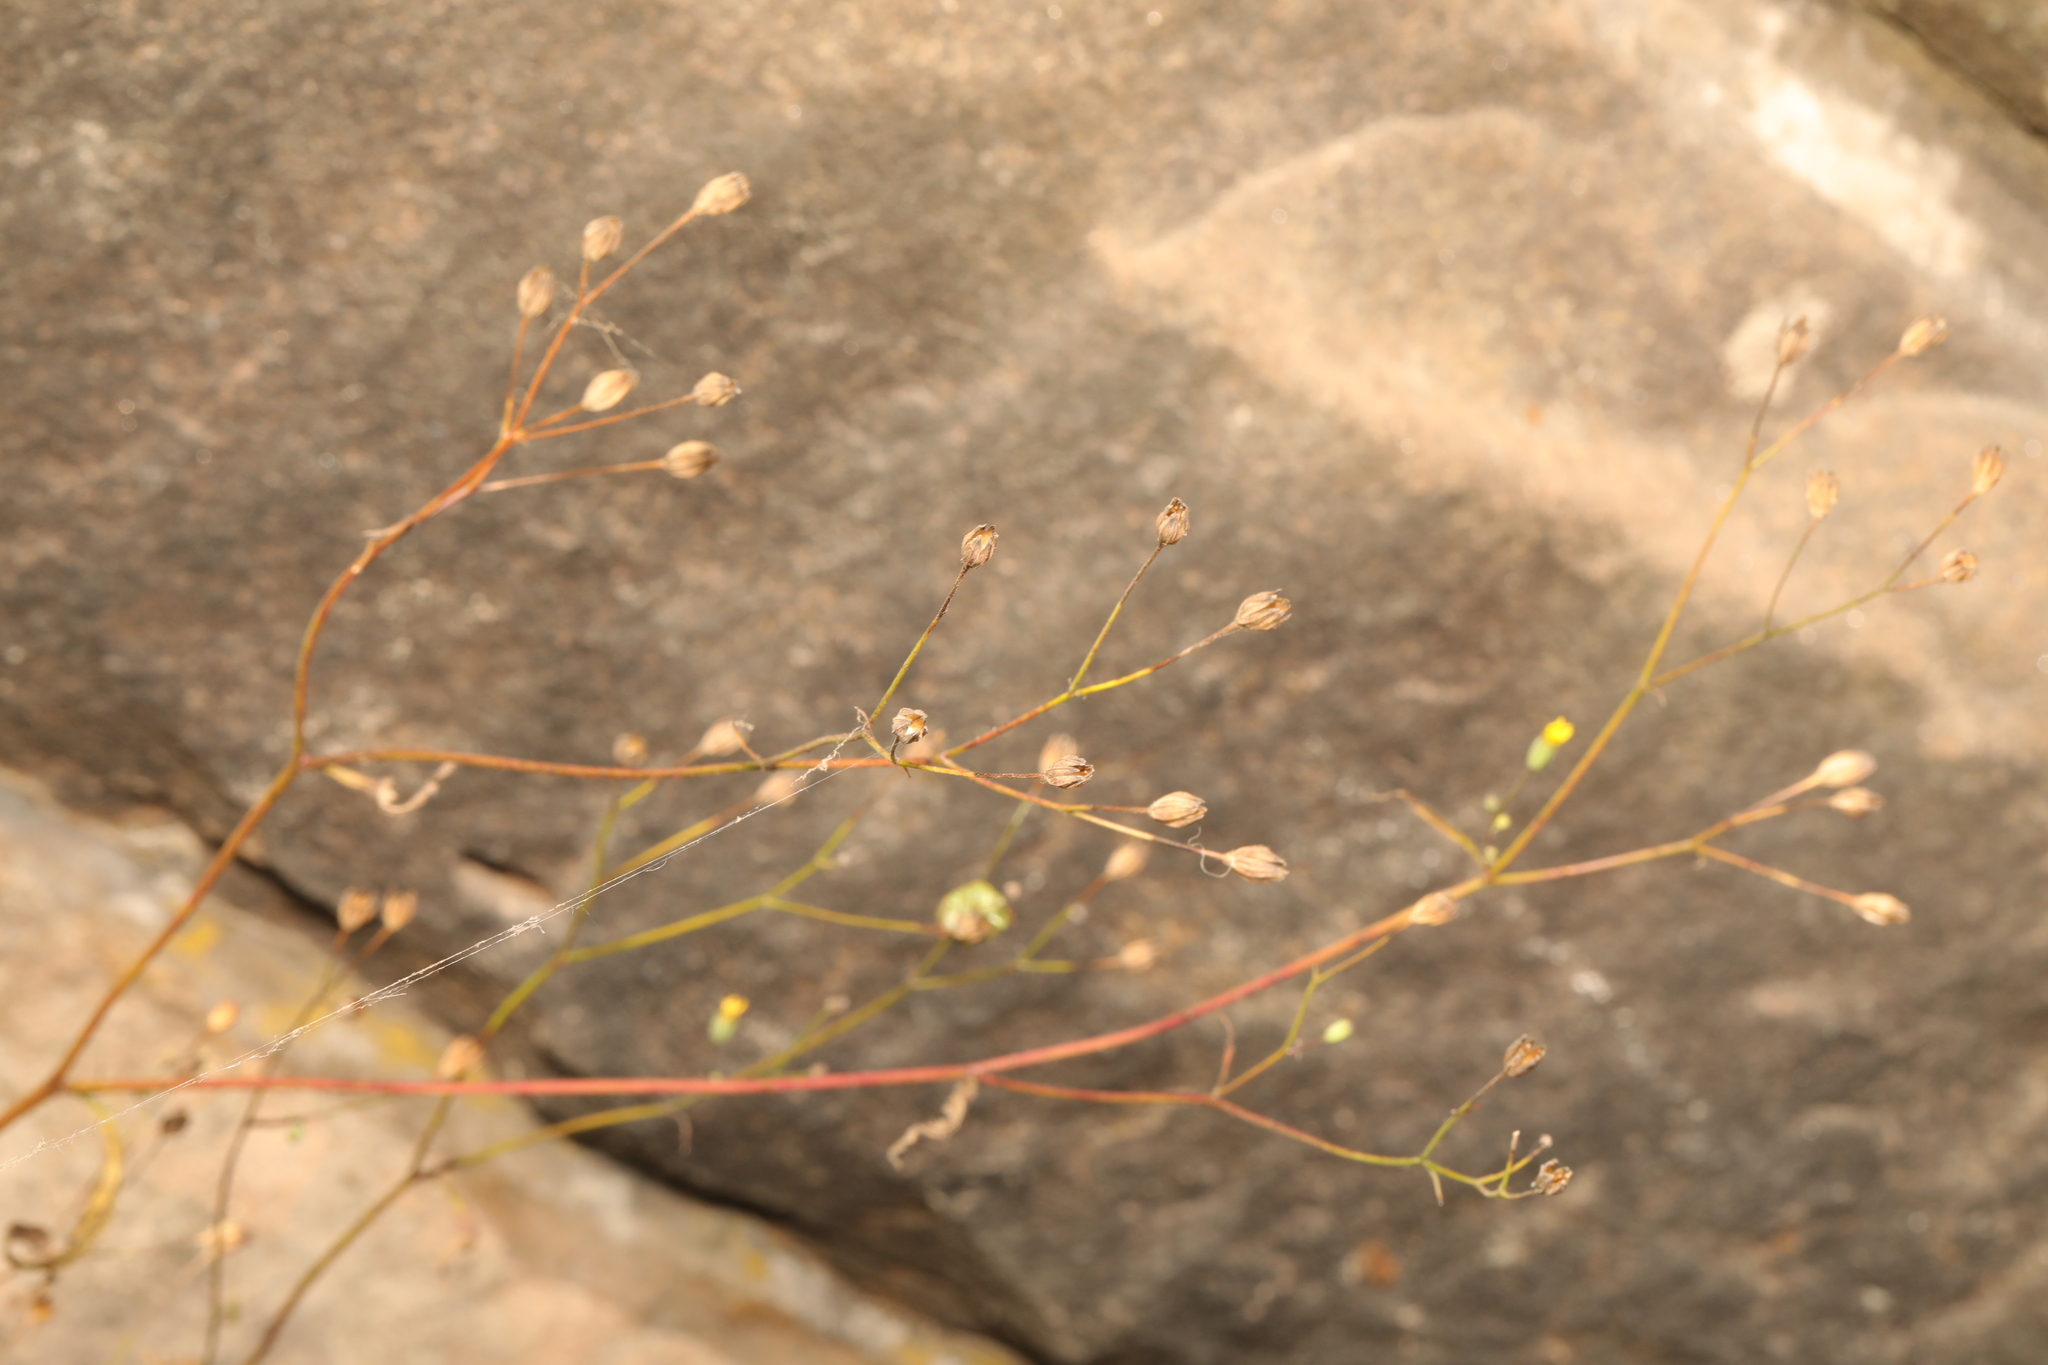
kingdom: Plantae
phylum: Tracheophyta
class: Magnoliopsida
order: Asterales
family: Asteraceae
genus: Lapsana
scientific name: Lapsana communis
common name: Nipplewort
